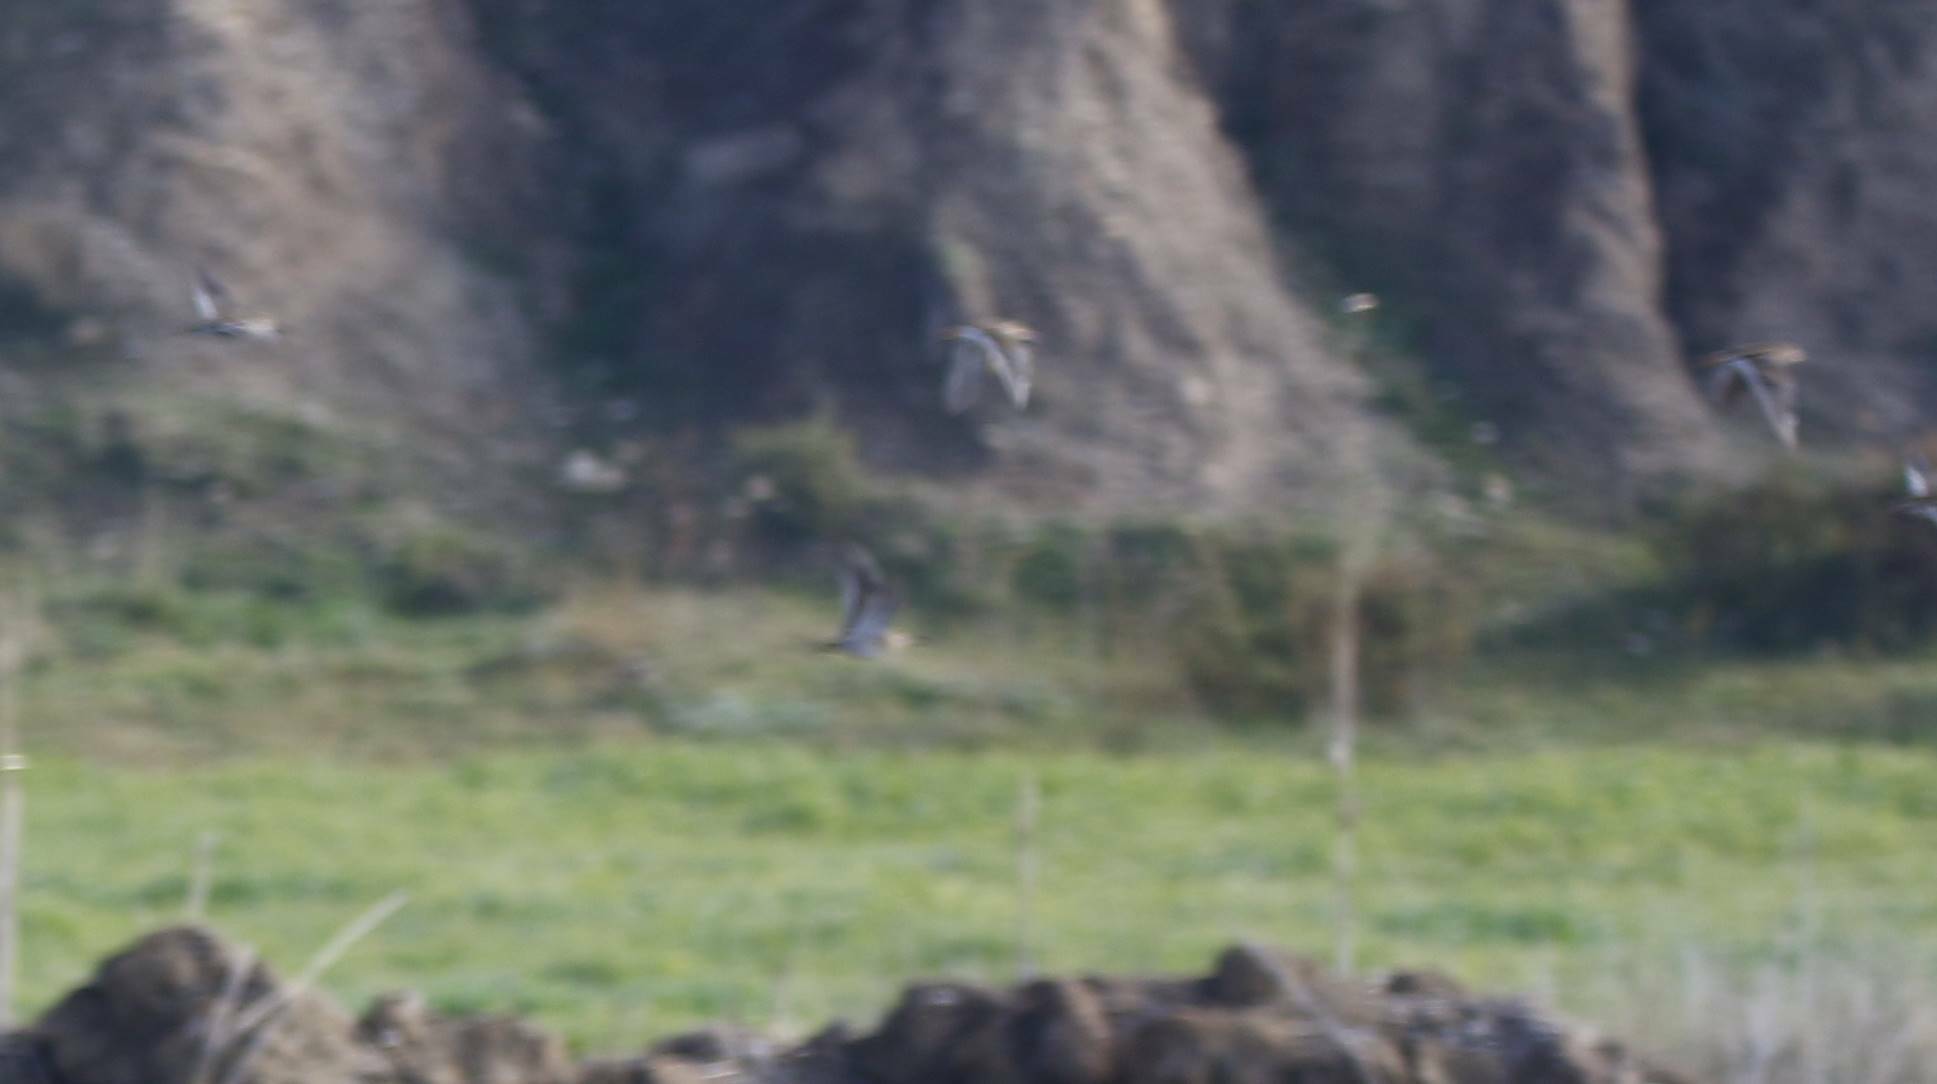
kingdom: Animalia
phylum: Chordata
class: Aves
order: Charadriiformes
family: Scolopacidae
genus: Gallinago
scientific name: Gallinago gallinago
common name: Common snipe
